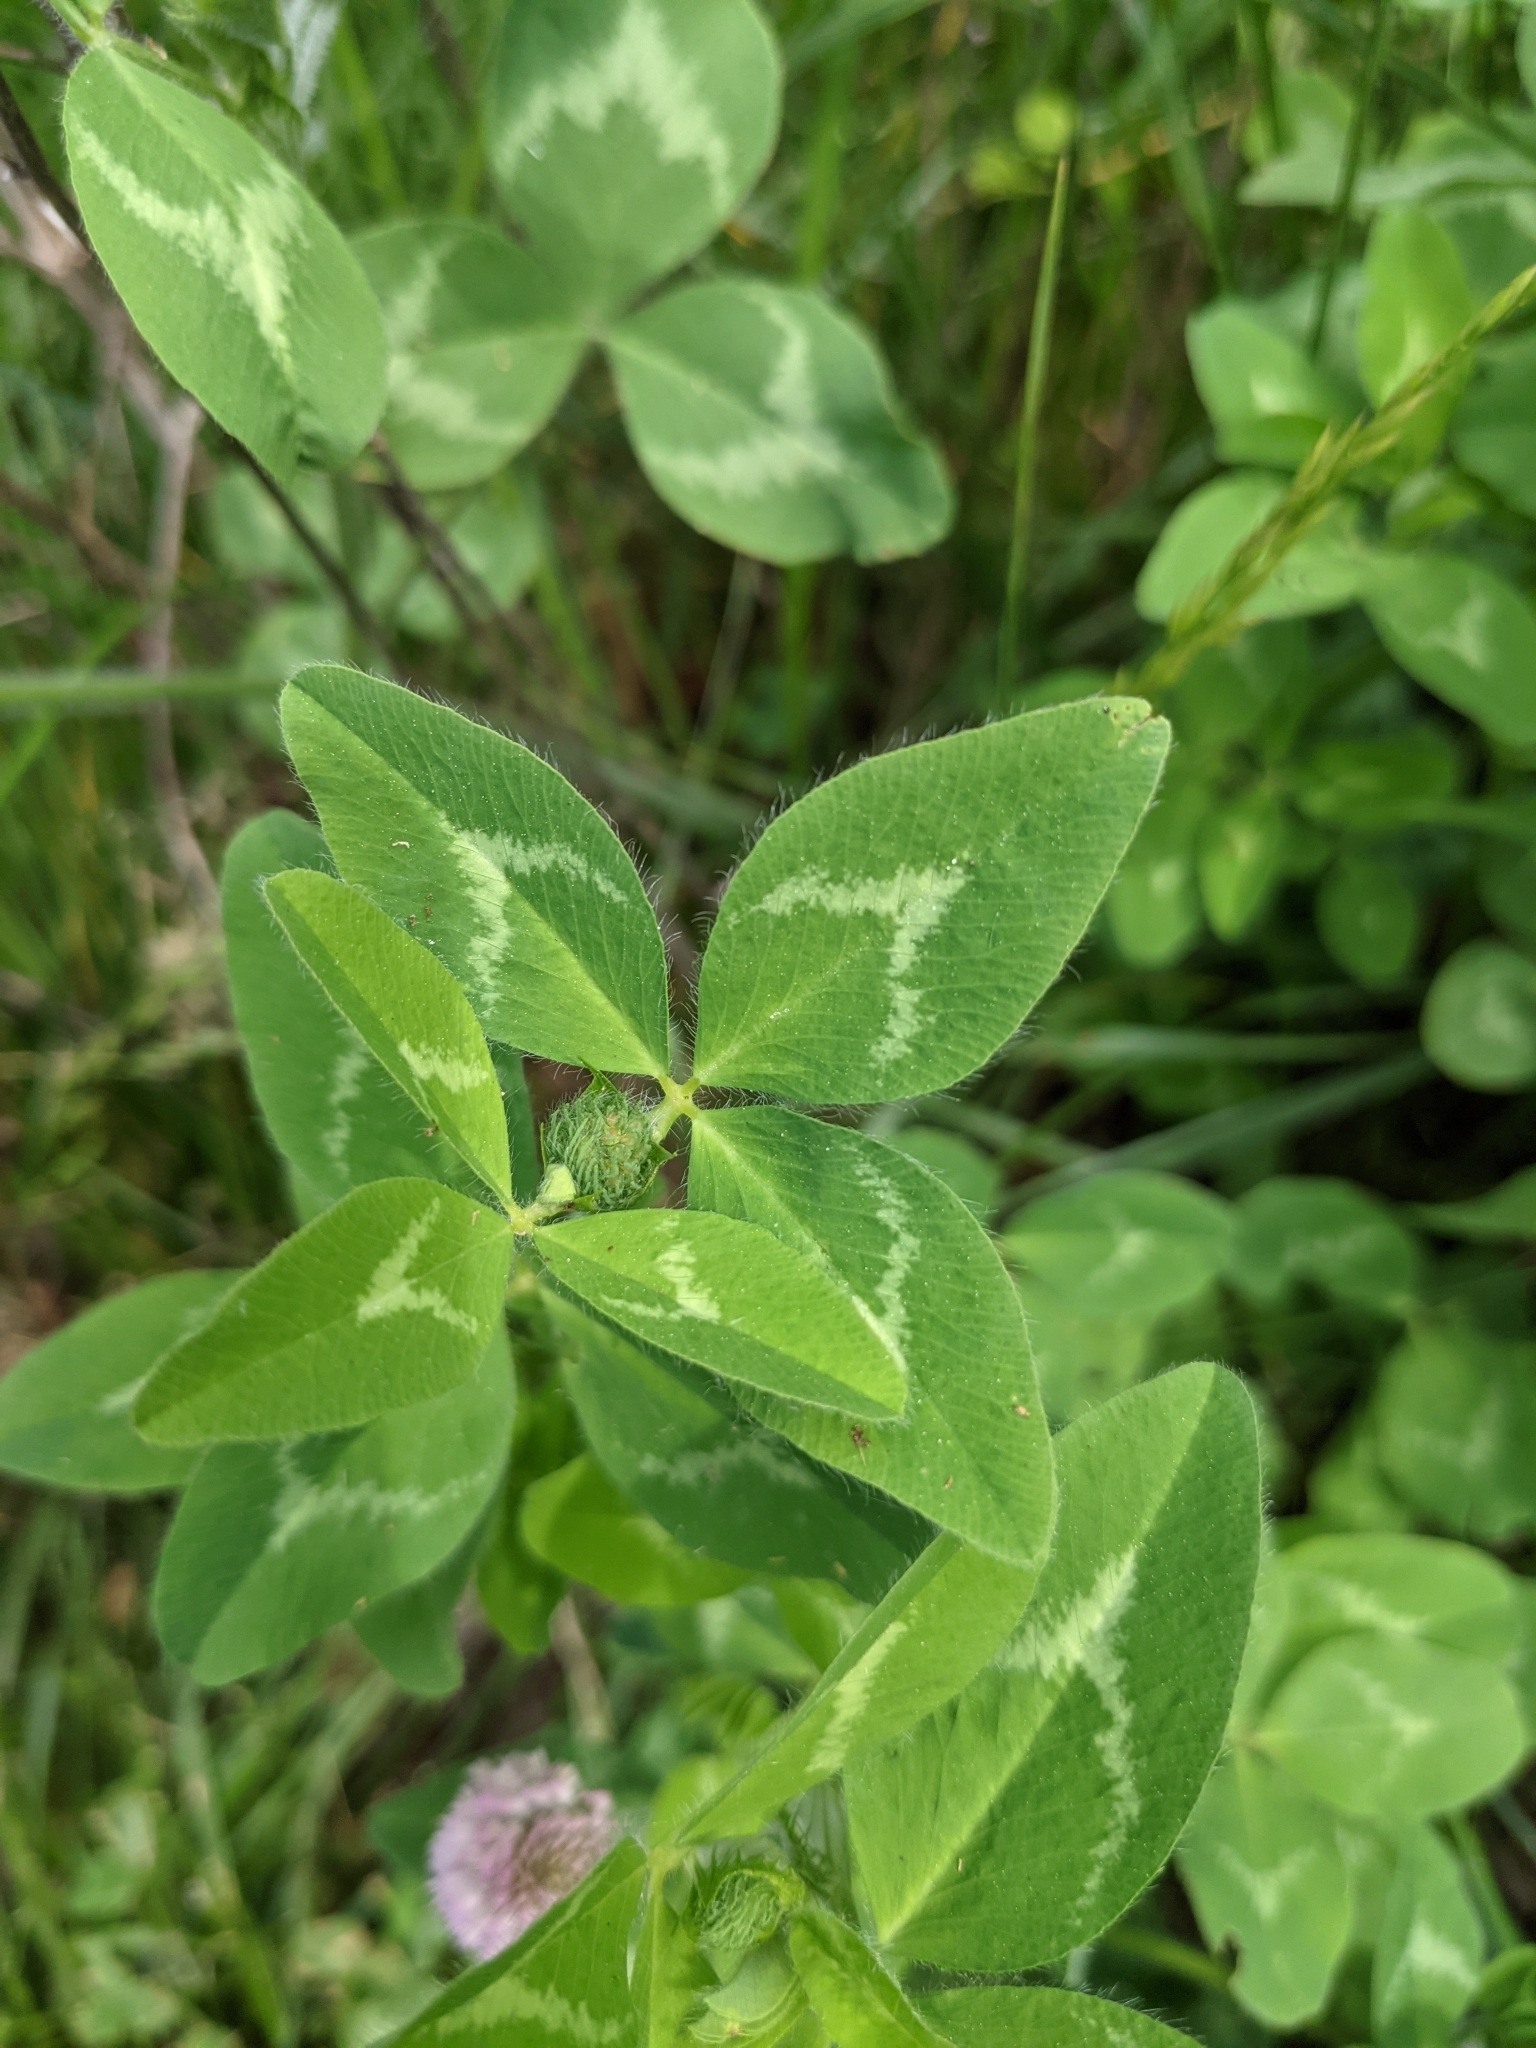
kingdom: Plantae
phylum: Tracheophyta
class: Magnoliopsida
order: Fabales
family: Fabaceae
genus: Trifolium
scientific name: Trifolium pratense
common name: Red clover
